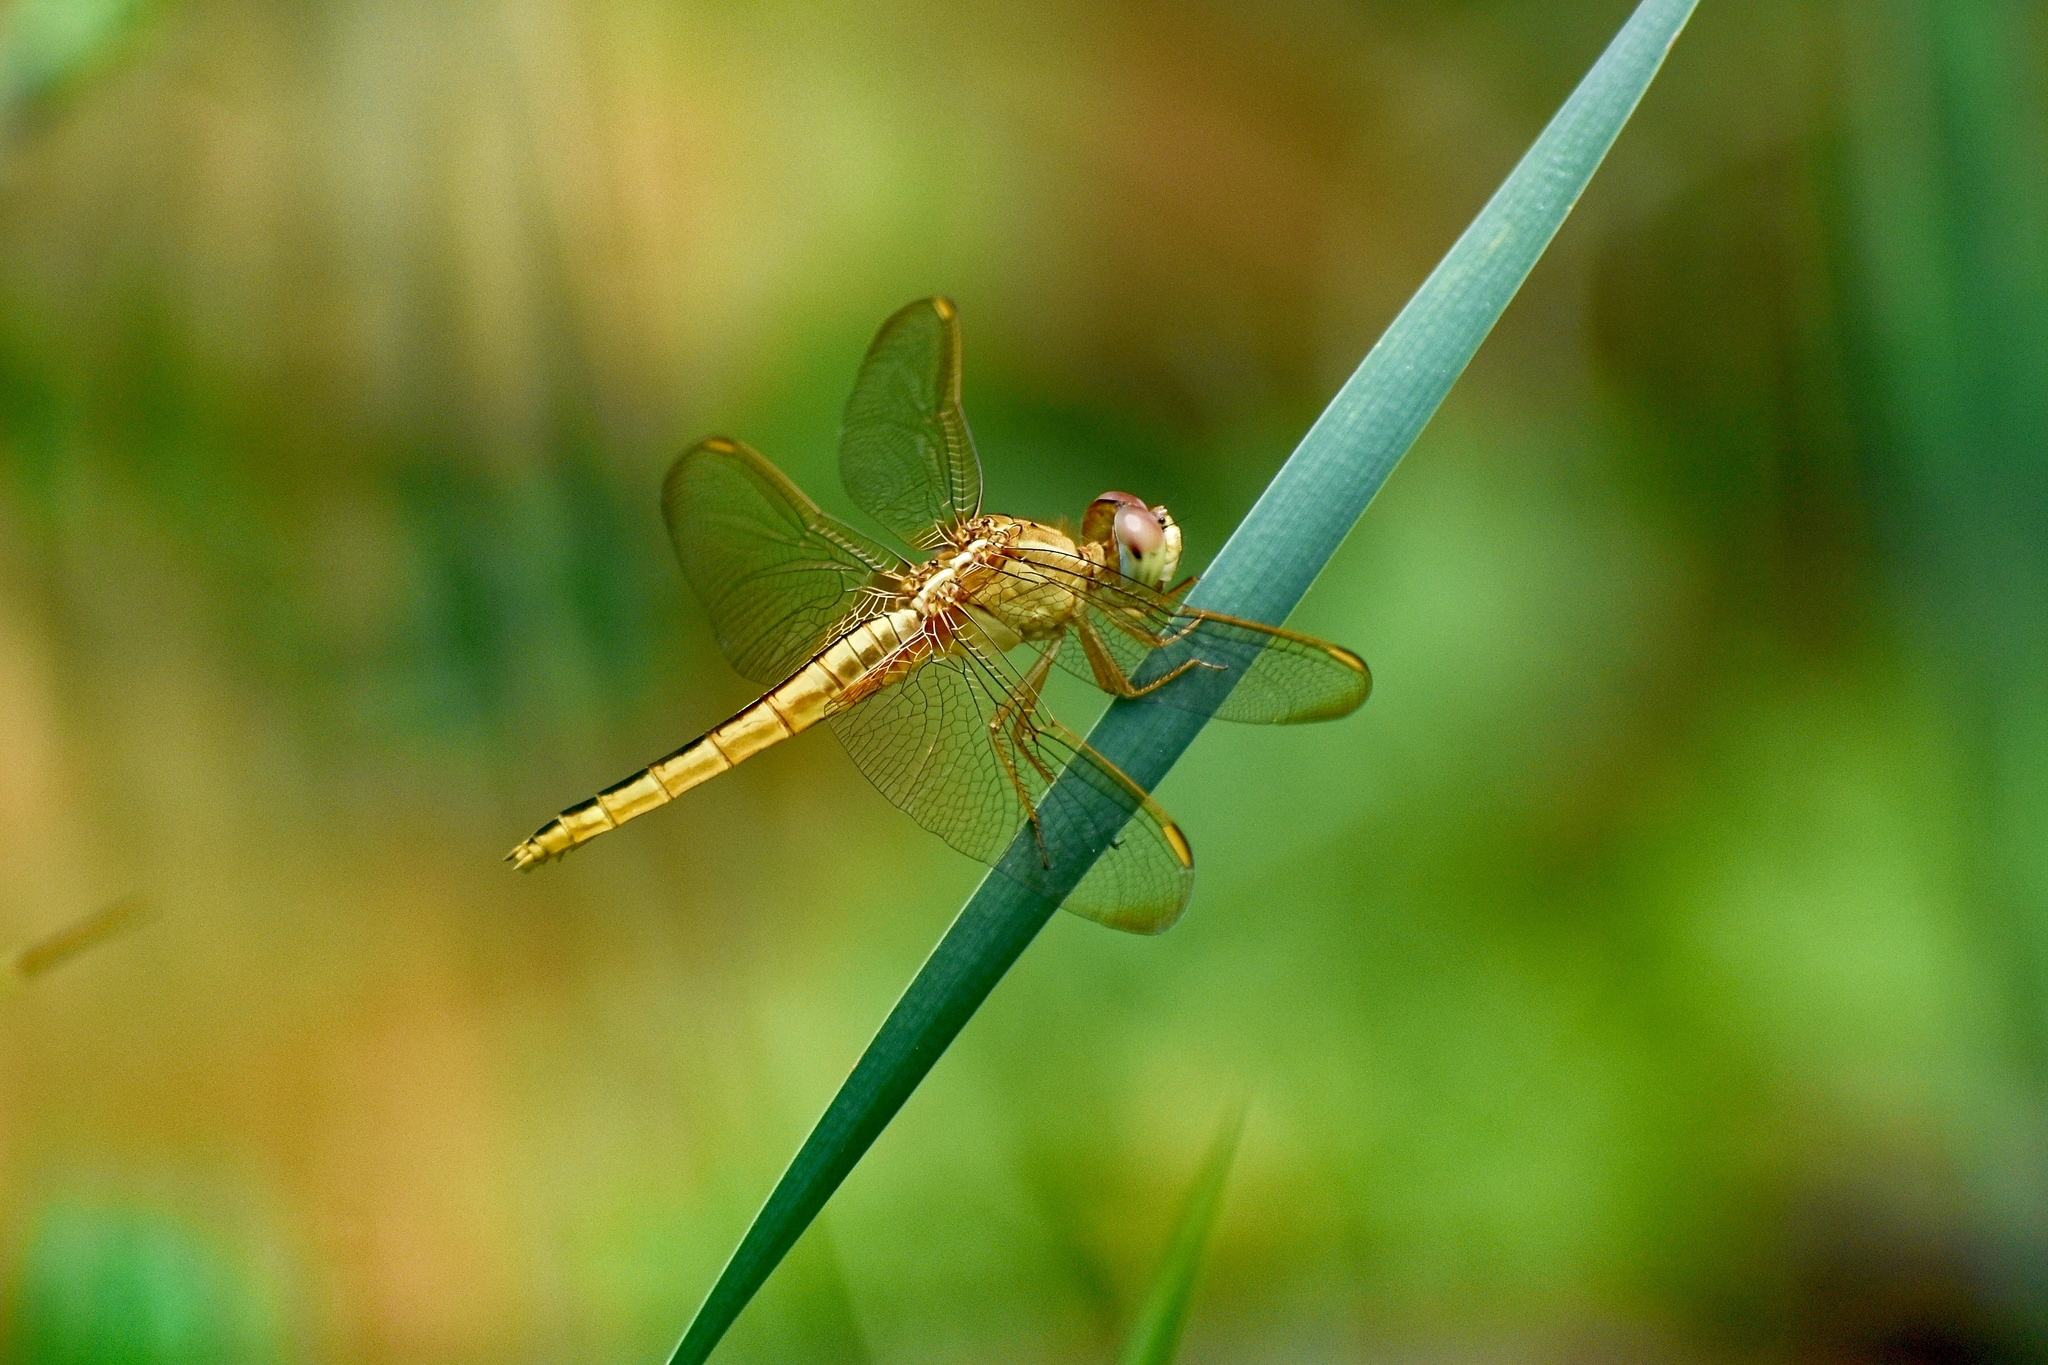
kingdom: Animalia
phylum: Arthropoda
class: Insecta
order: Odonata
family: Libellulidae
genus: Crocothemis
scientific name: Crocothemis servilia
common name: Scarlet skimmer
